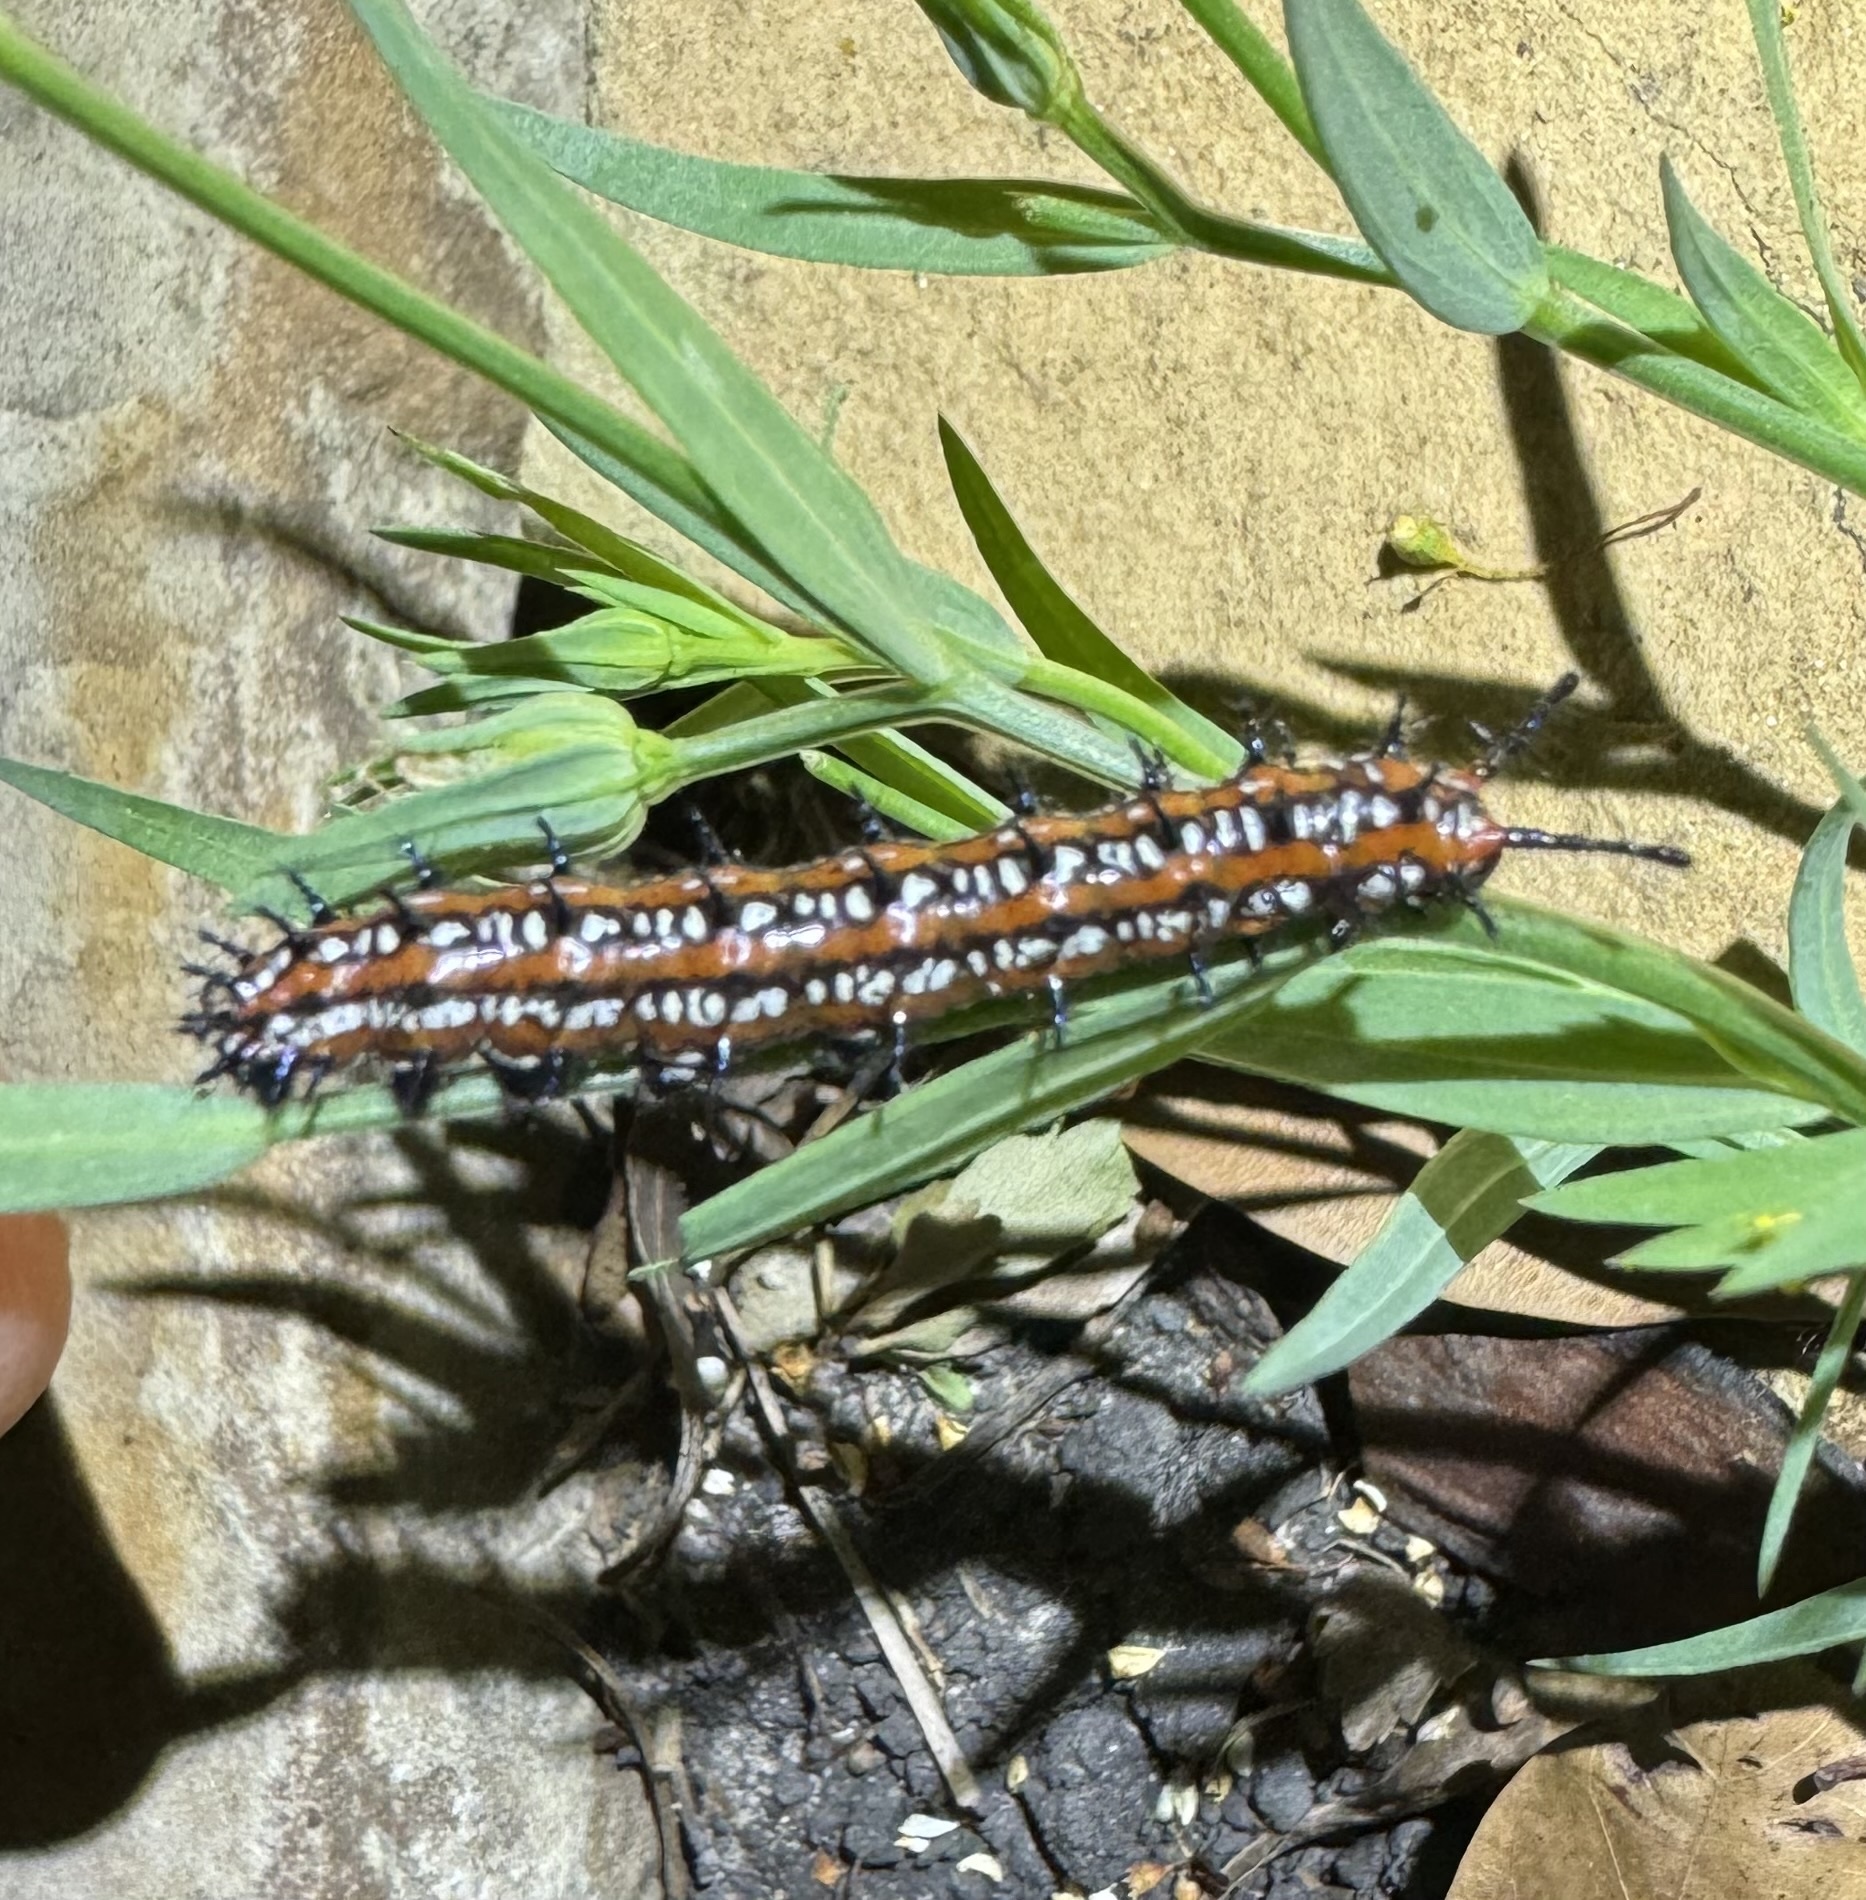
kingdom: Animalia
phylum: Arthropoda
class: Insecta
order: Lepidoptera
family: Nymphalidae
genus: Euptoieta
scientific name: Euptoieta claudia
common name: Variegated fritillary
